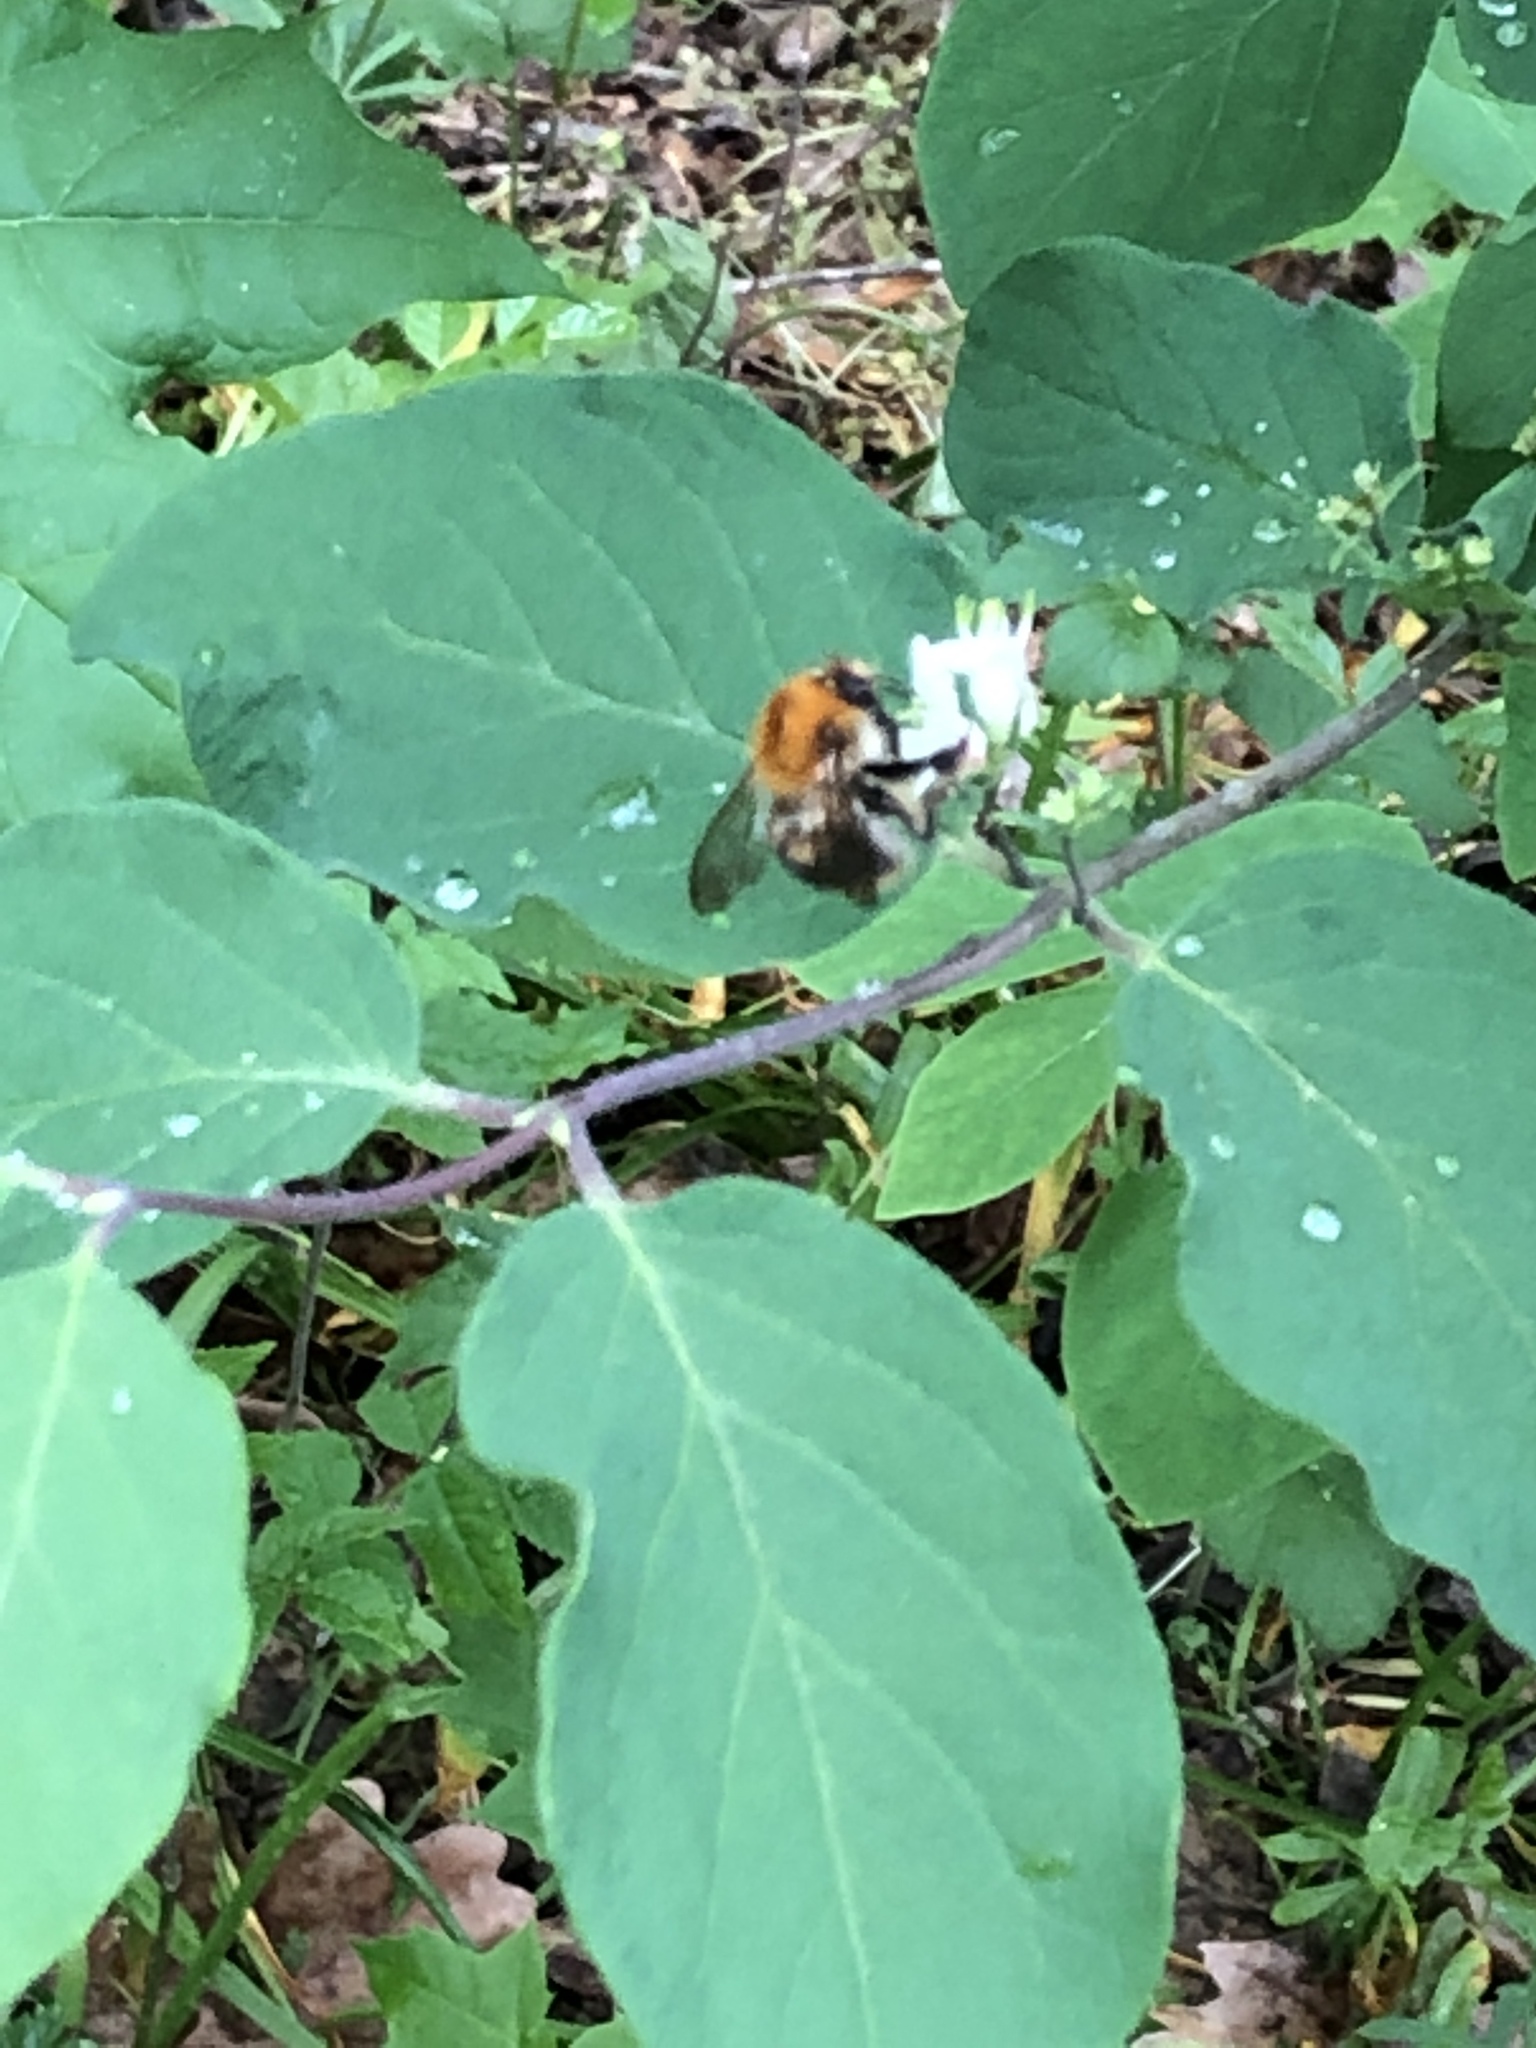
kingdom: Animalia
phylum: Arthropoda
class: Insecta
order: Hymenoptera
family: Apidae
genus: Bombus
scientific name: Bombus pascuorum
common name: Common carder bee
